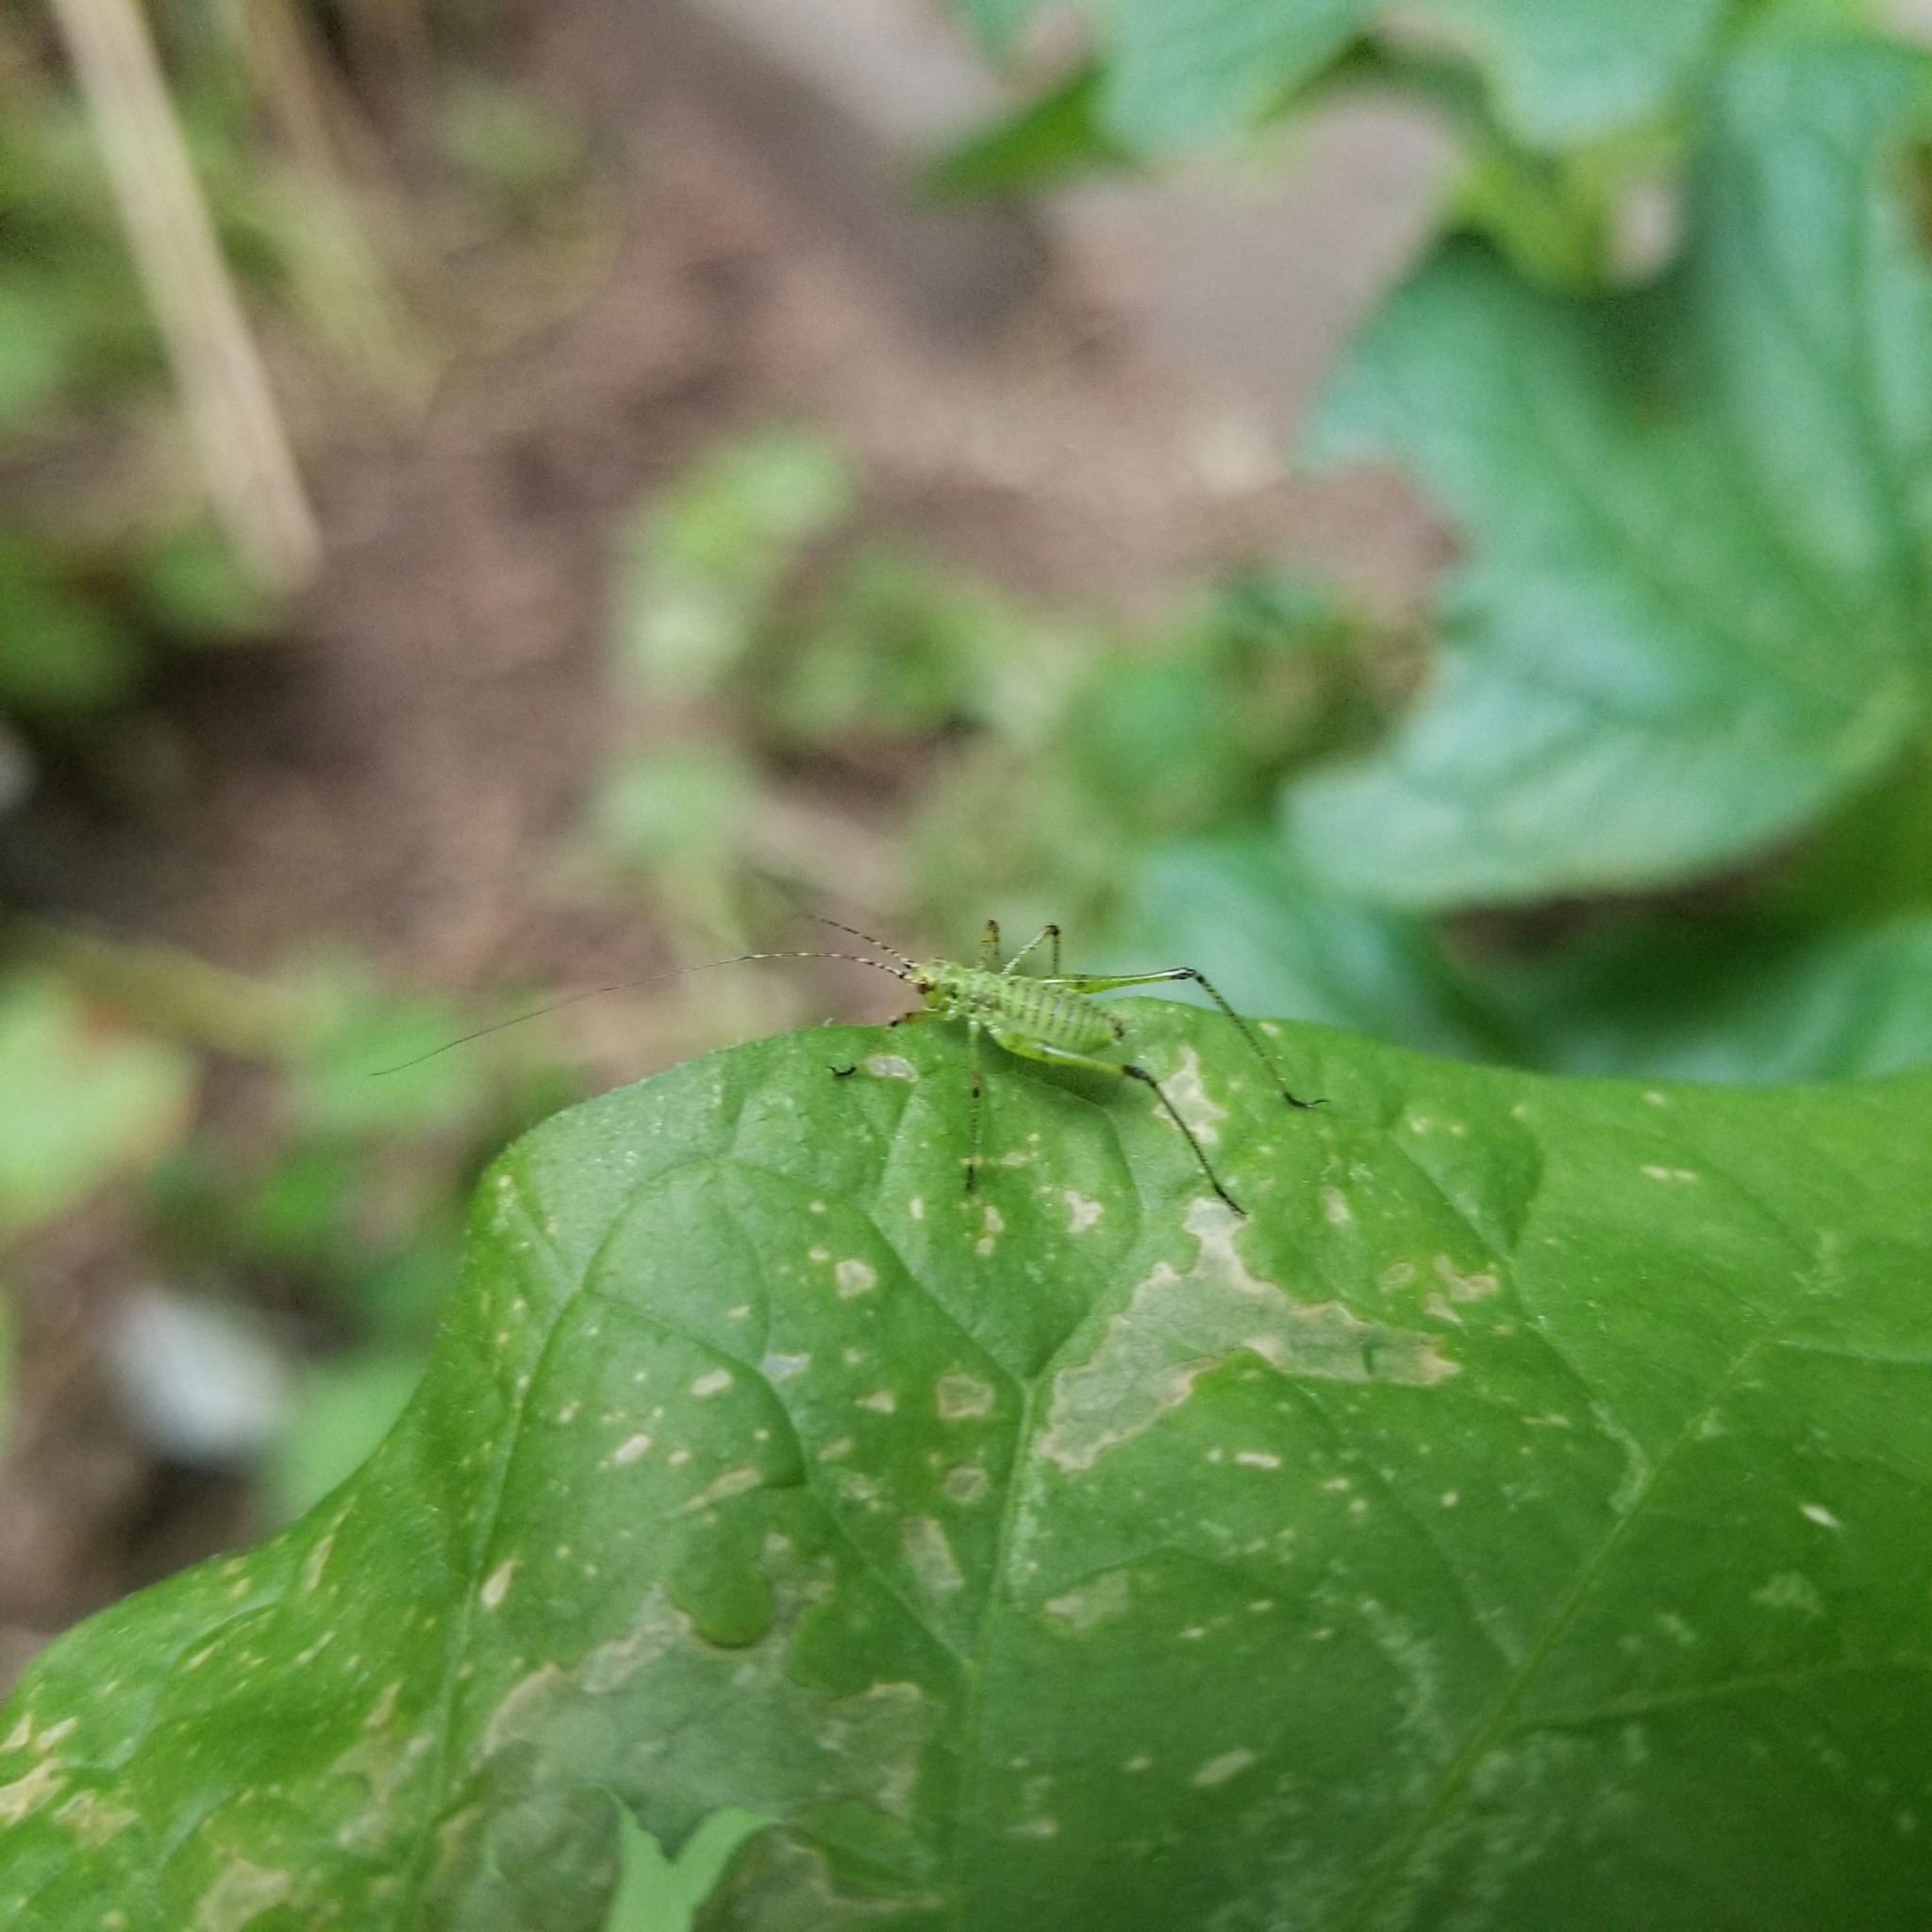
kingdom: Animalia
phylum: Arthropoda
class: Insecta
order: Orthoptera
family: Tettigoniidae
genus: Phaneroptera
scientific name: Phaneroptera nana
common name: Southern sickle bush-cricket
